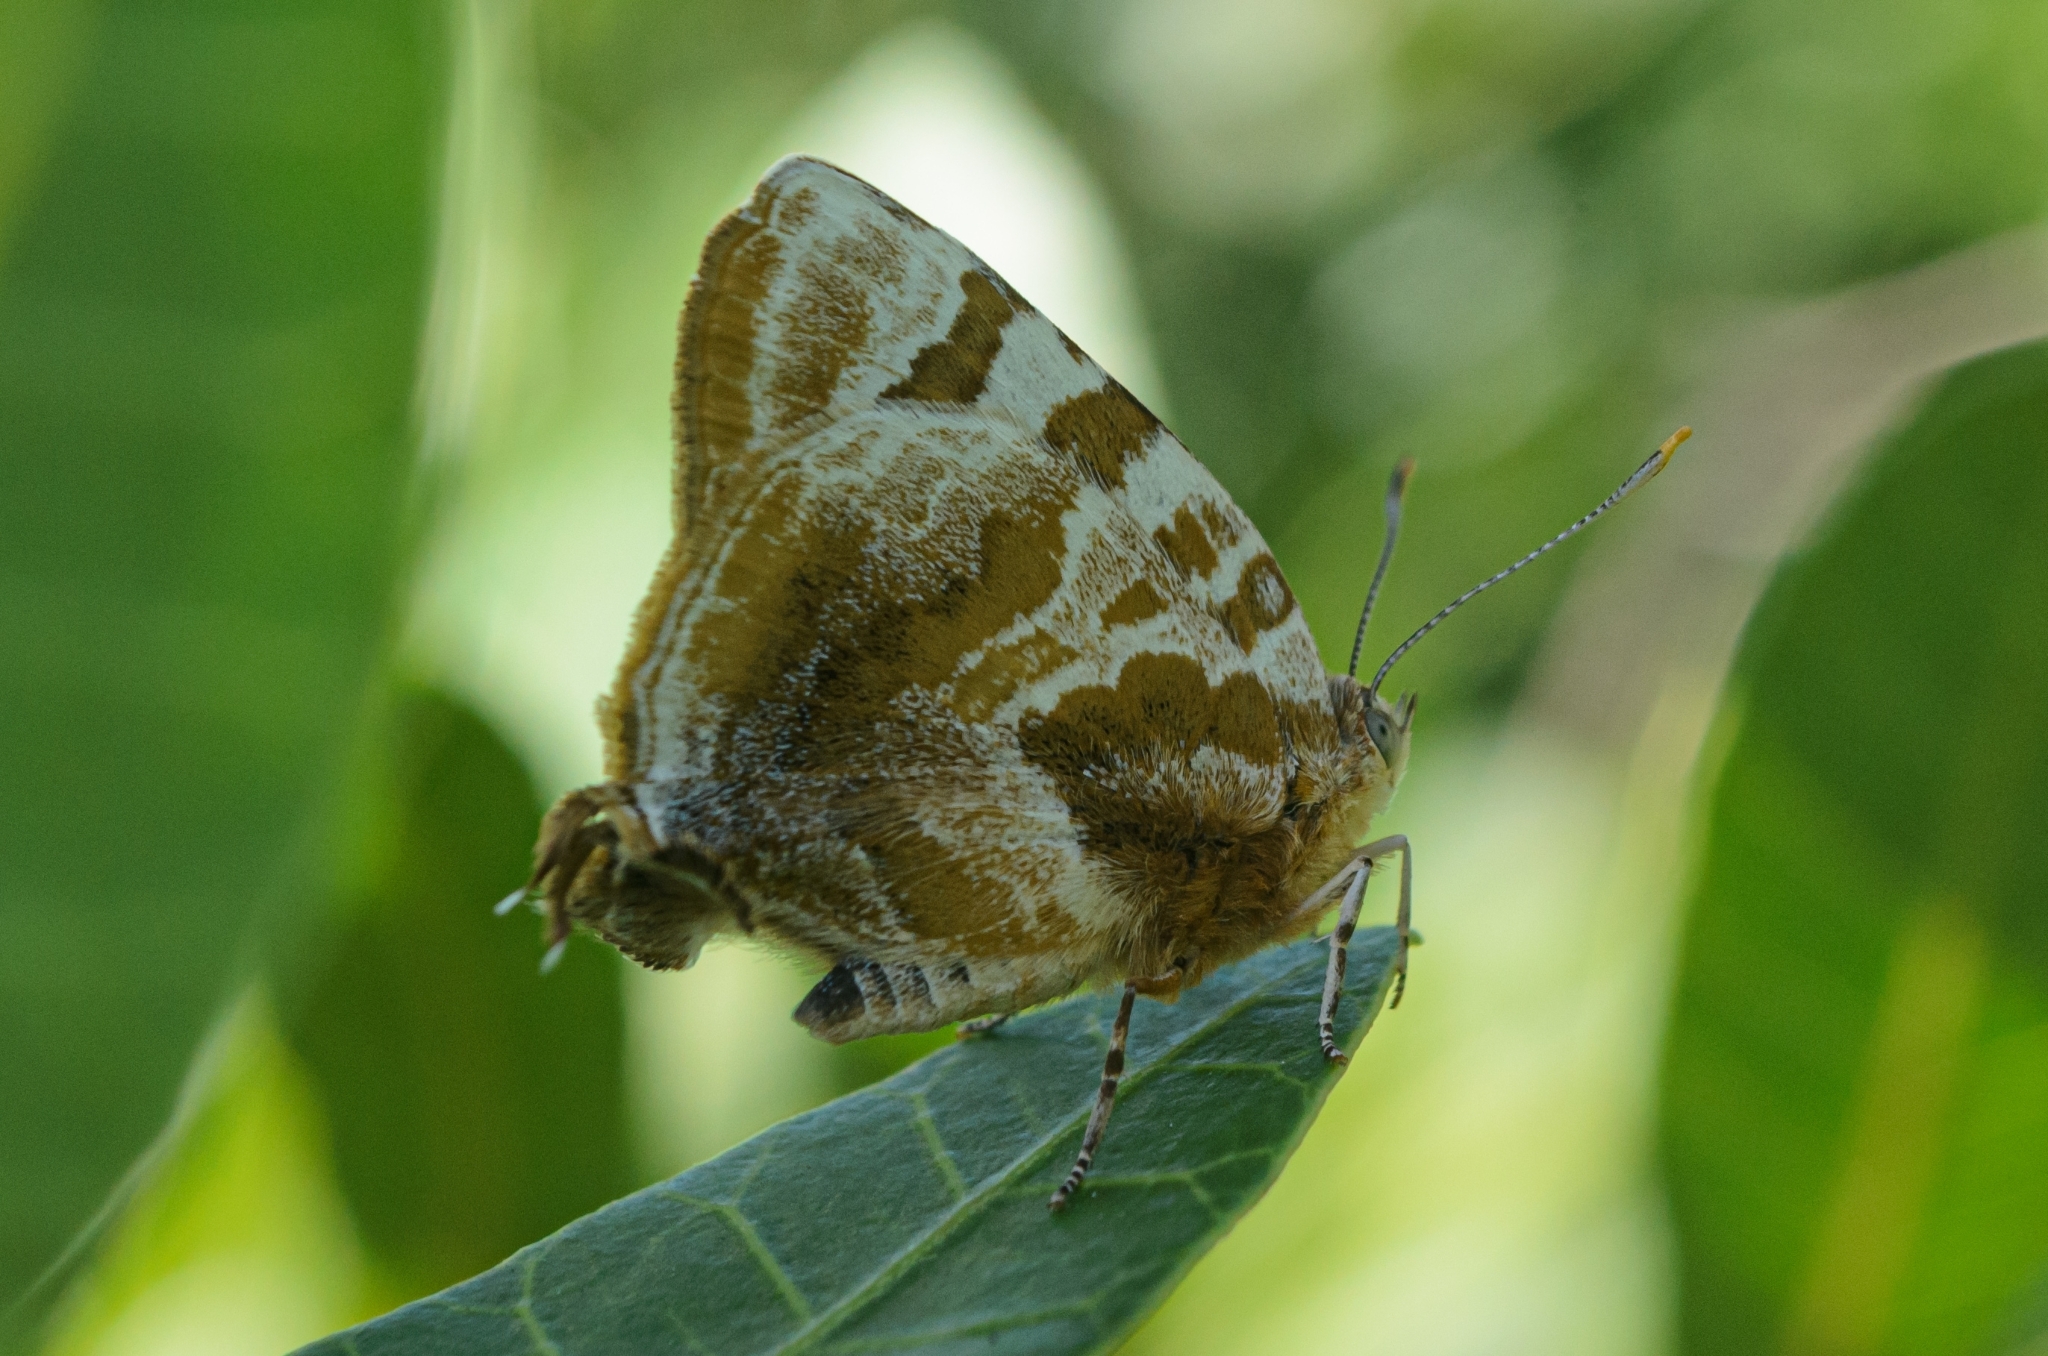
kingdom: Animalia
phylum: Arthropoda
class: Insecta
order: Lepidoptera
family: Lycaenidae
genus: Arawacus
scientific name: Arawacus ellida
